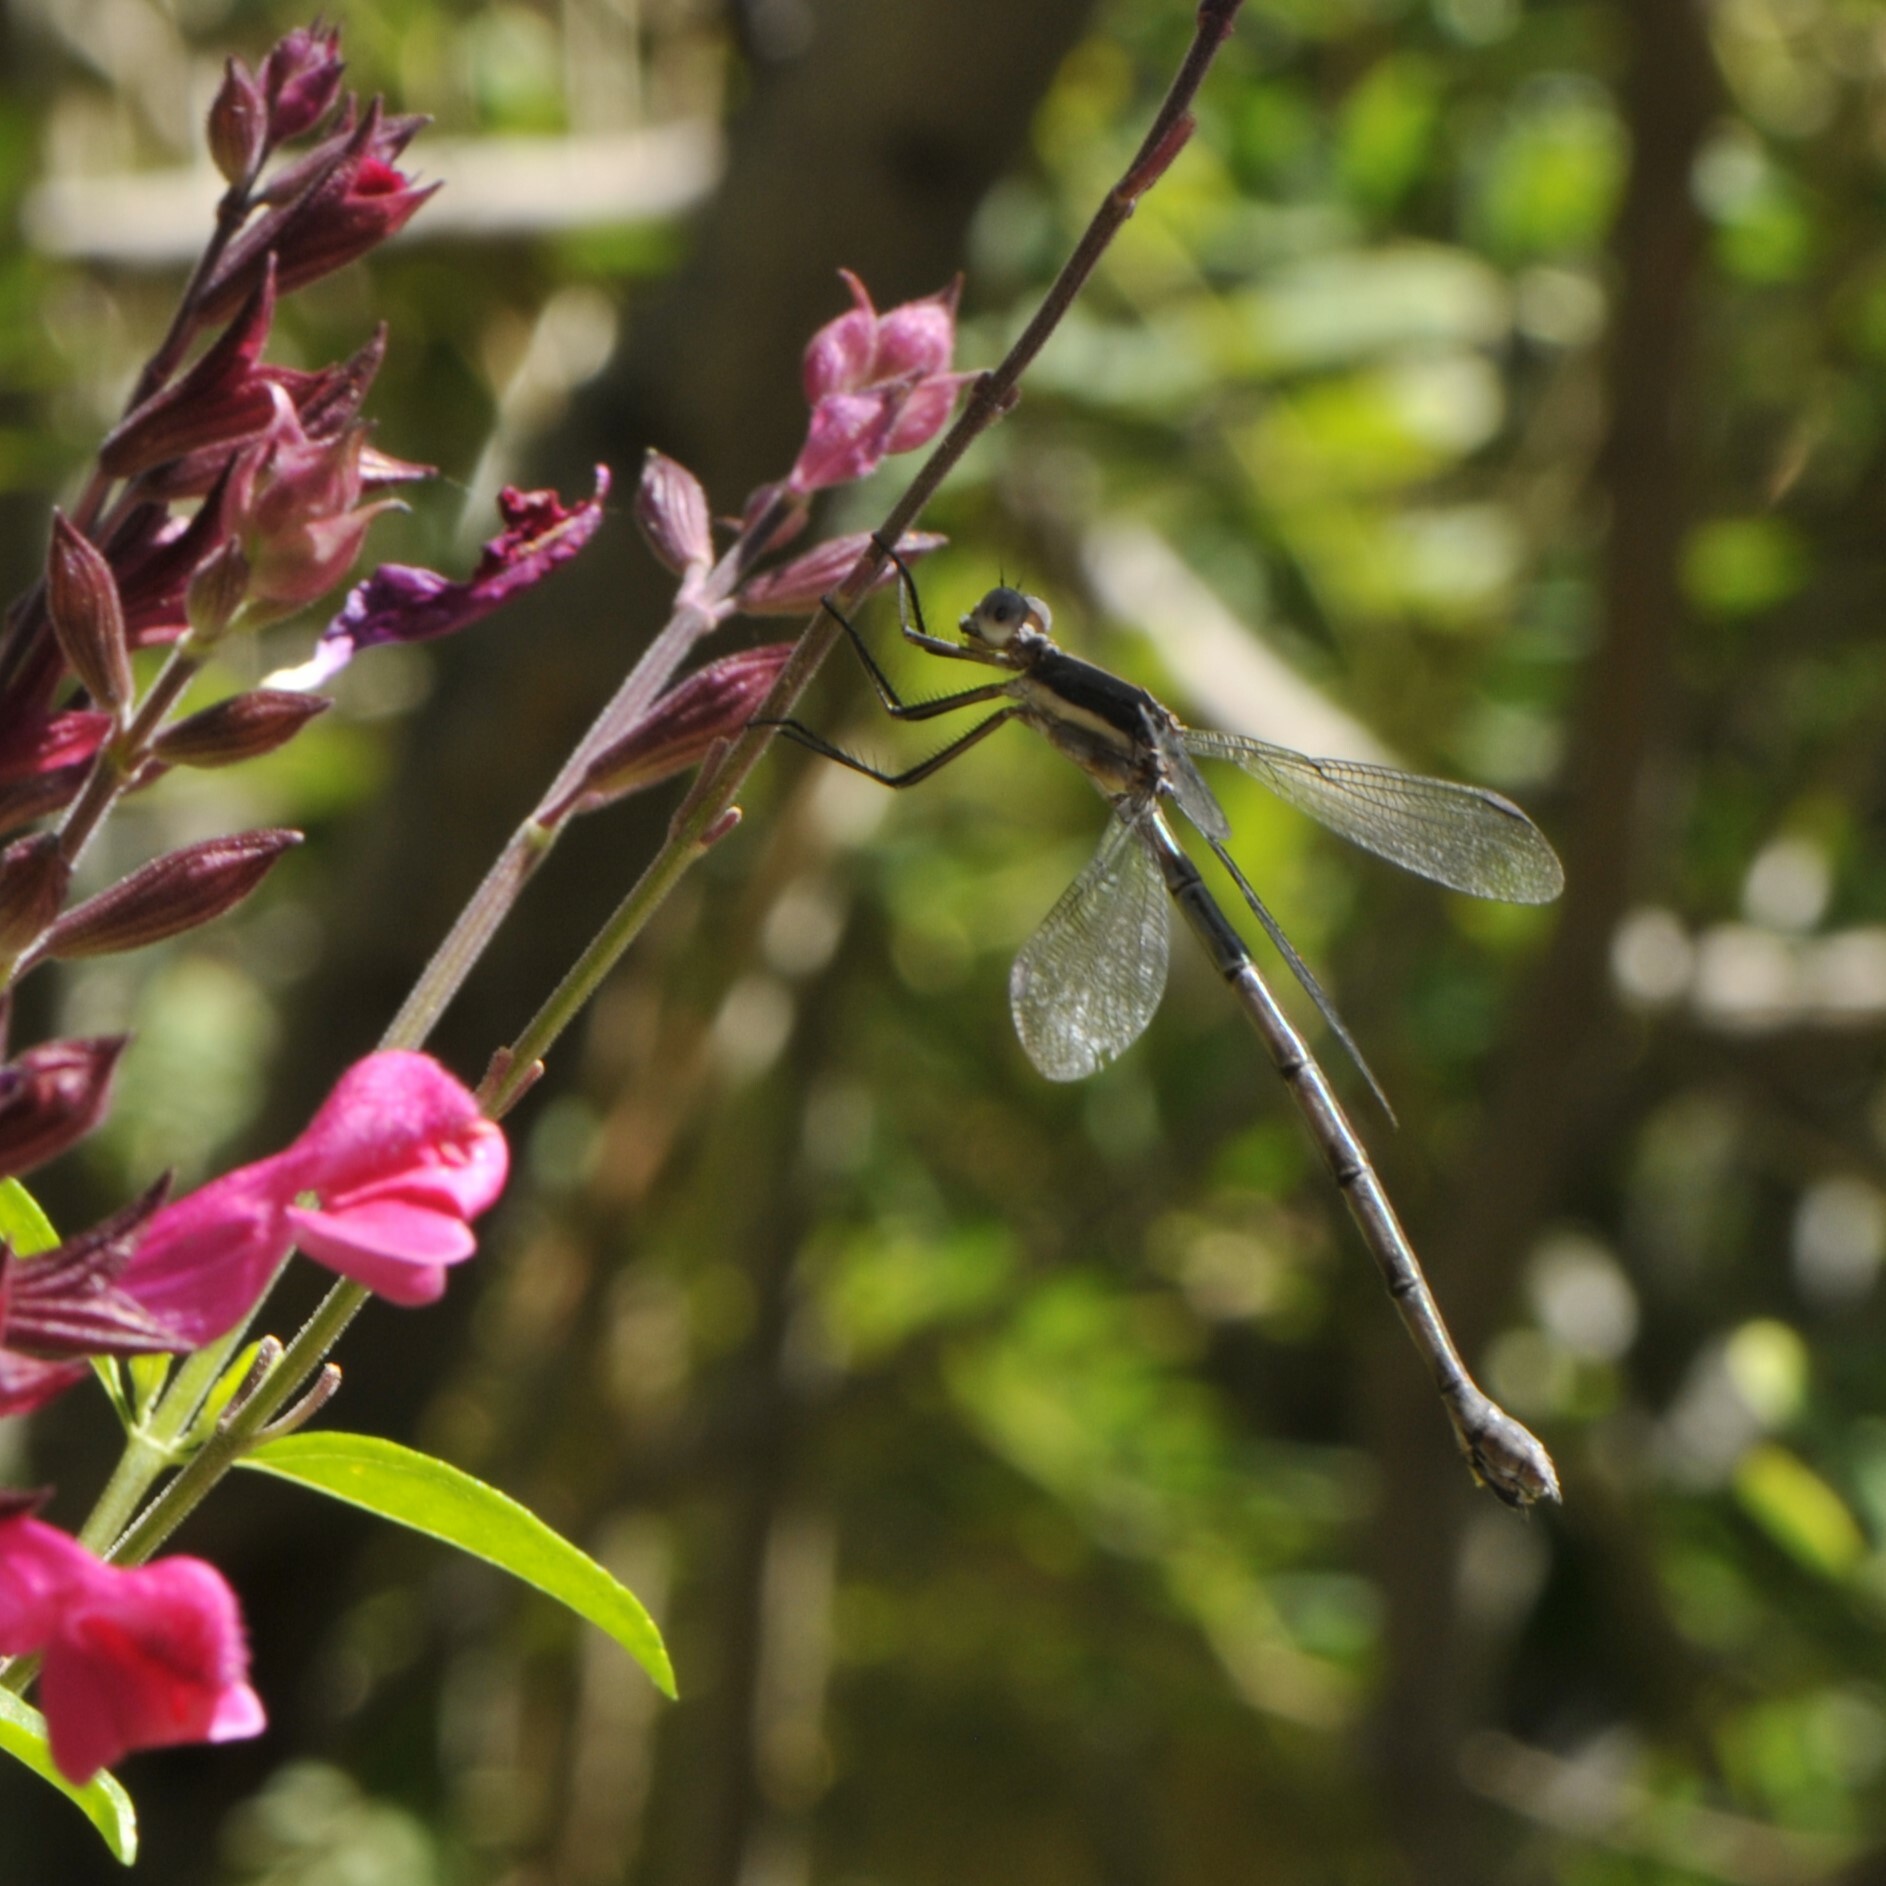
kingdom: Animalia
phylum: Arthropoda
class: Insecta
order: Odonata
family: Lestidae
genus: Archilestes
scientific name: Archilestes grandis
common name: Great spreadwing
